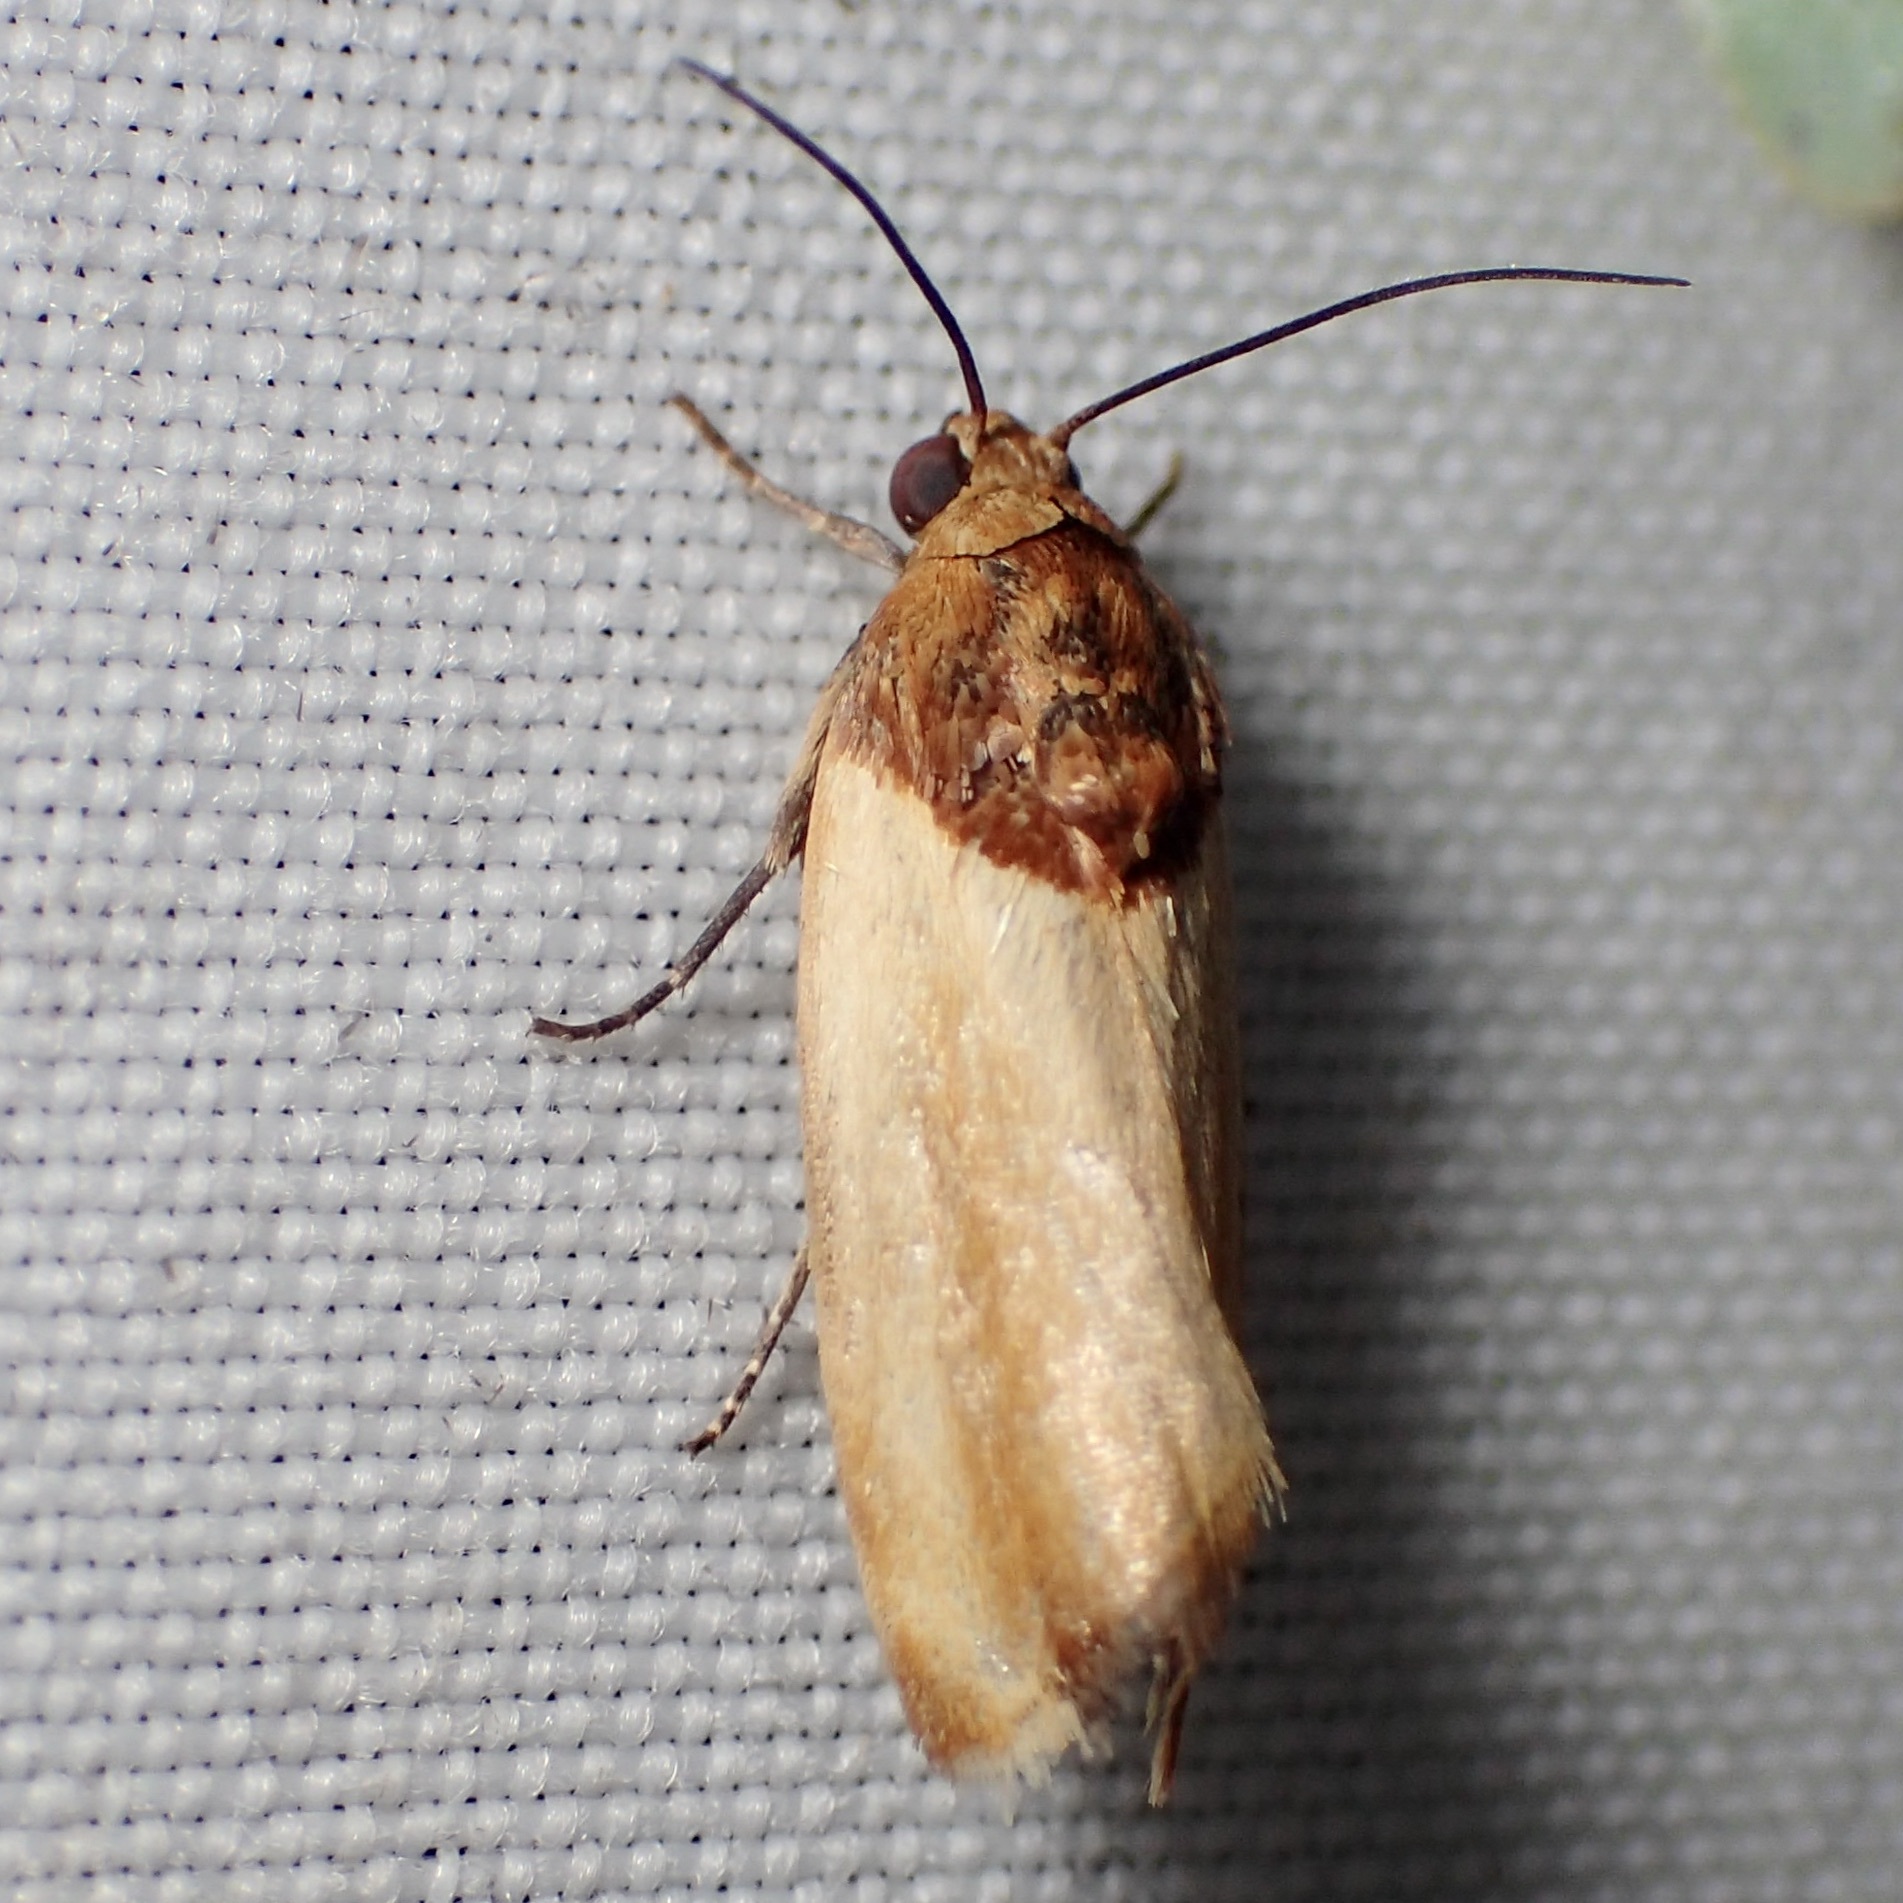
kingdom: Animalia
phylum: Arthropoda
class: Insecta
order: Lepidoptera
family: Noctuidae
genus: Spragueia
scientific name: Spragueia apicalis
